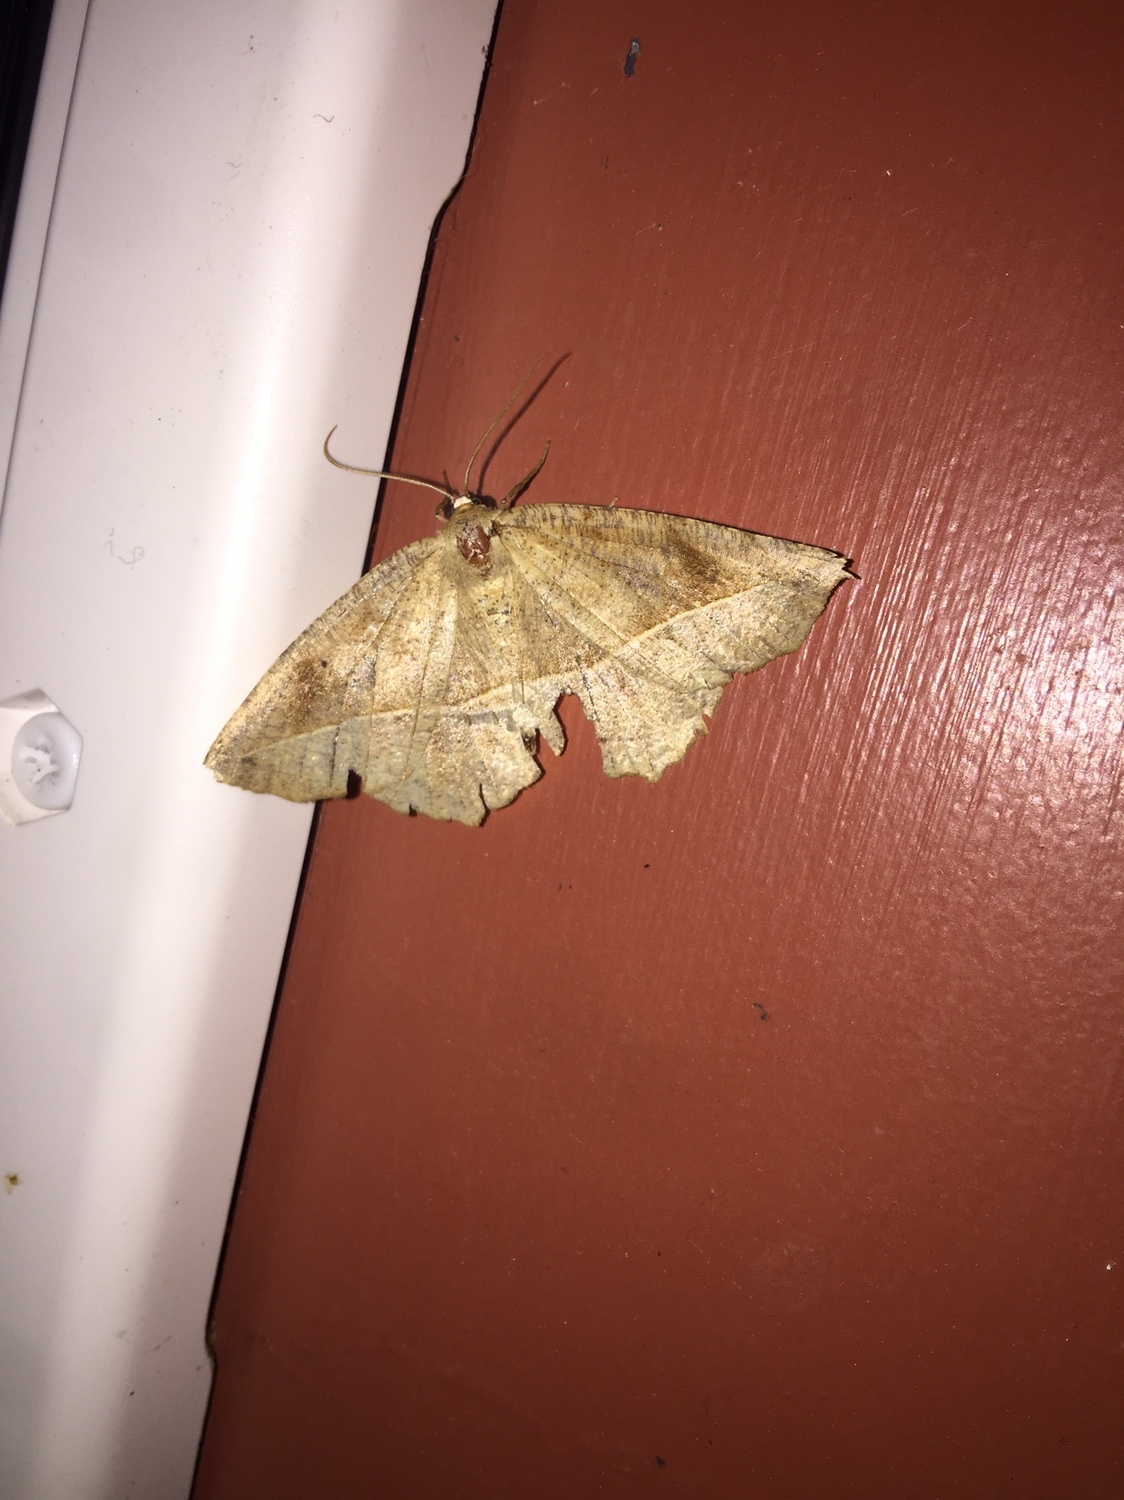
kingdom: Animalia
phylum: Arthropoda
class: Insecta
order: Lepidoptera
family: Geometridae
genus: Eutrapela
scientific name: Eutrapela clemataria
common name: Curved-toothed geometer
